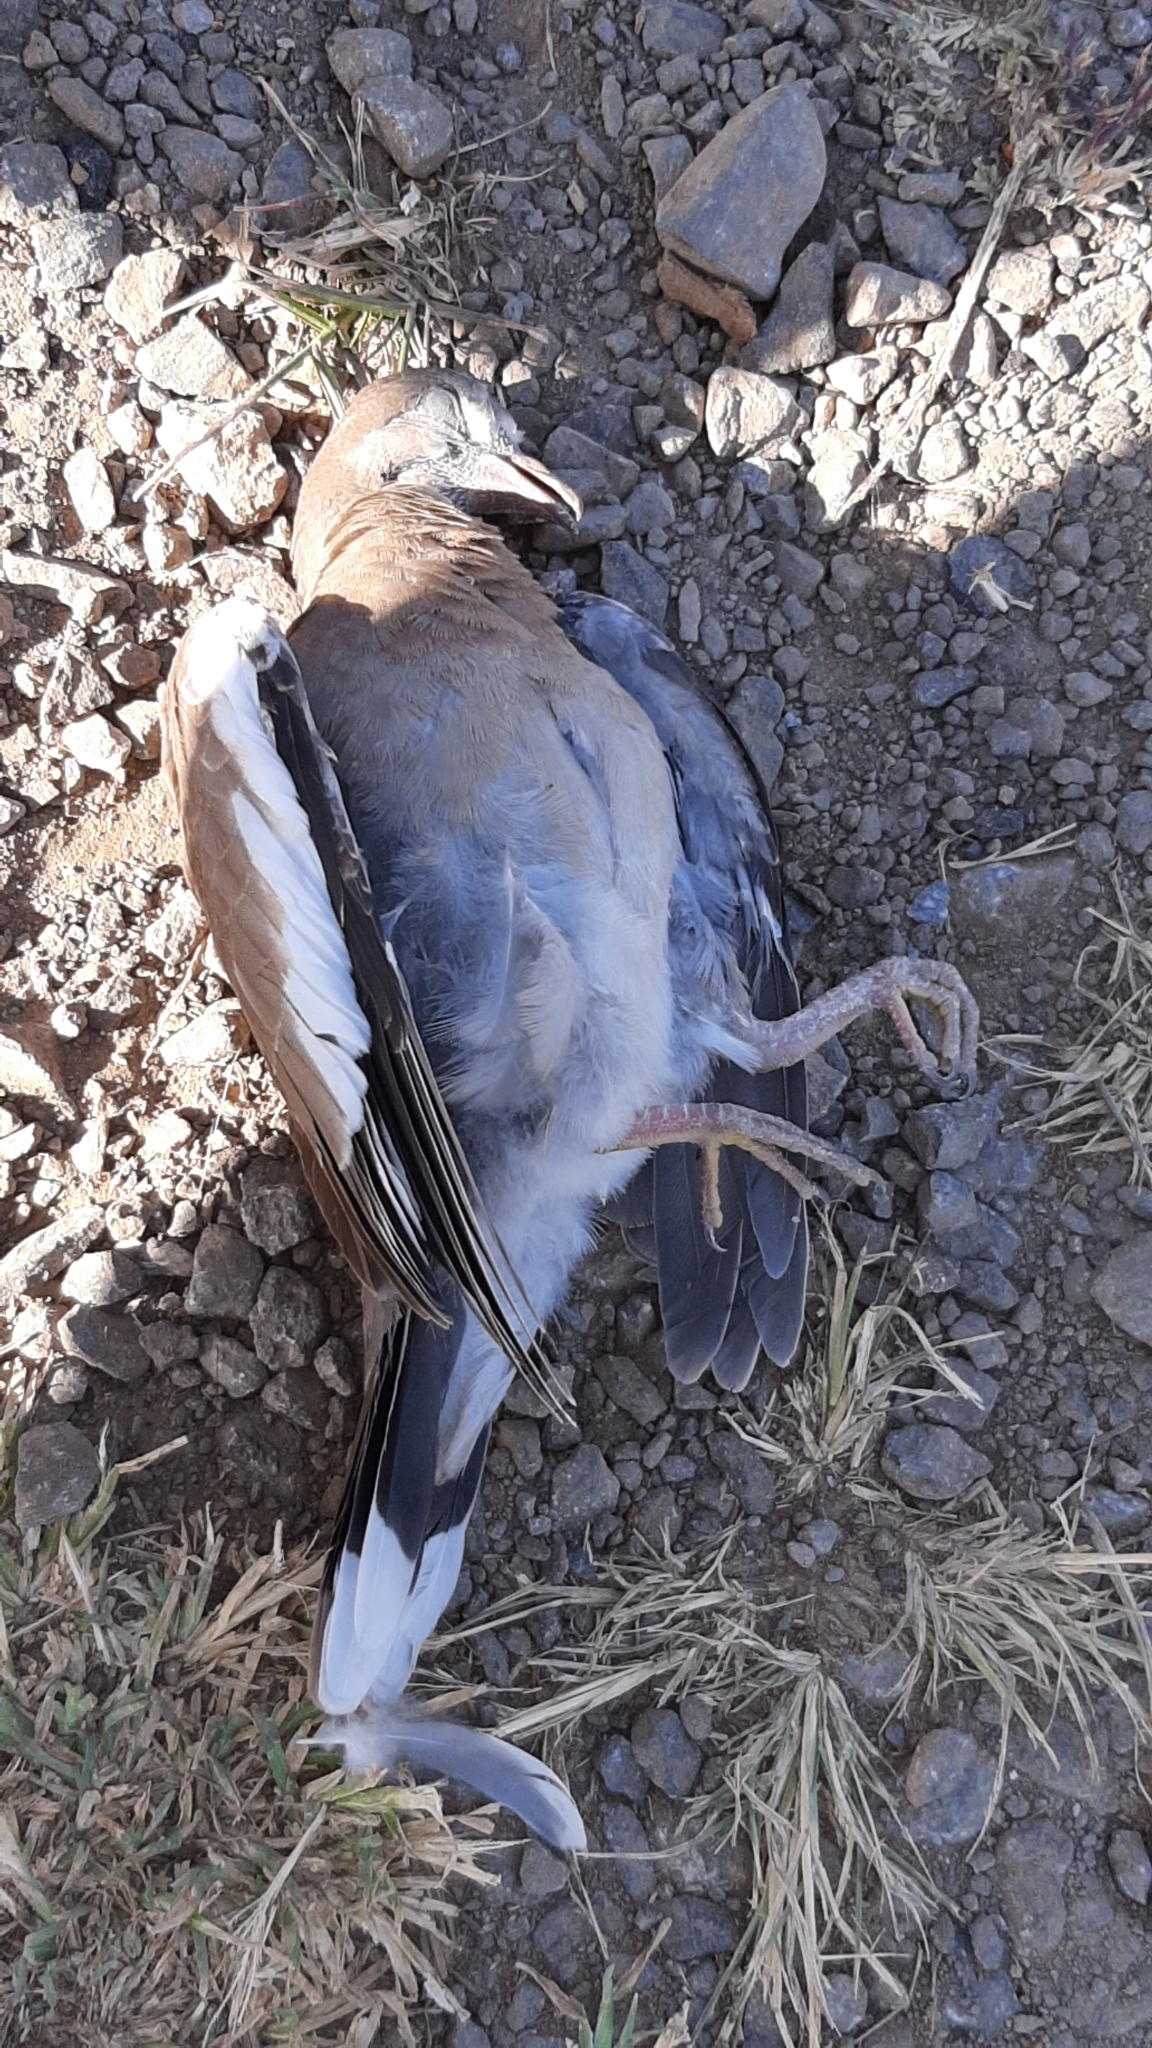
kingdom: Animalia
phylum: Chordata
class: Aves
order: Columbiformes
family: Columbidae
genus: Zenaida
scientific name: Zenaida asiatica
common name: White-winged dove
